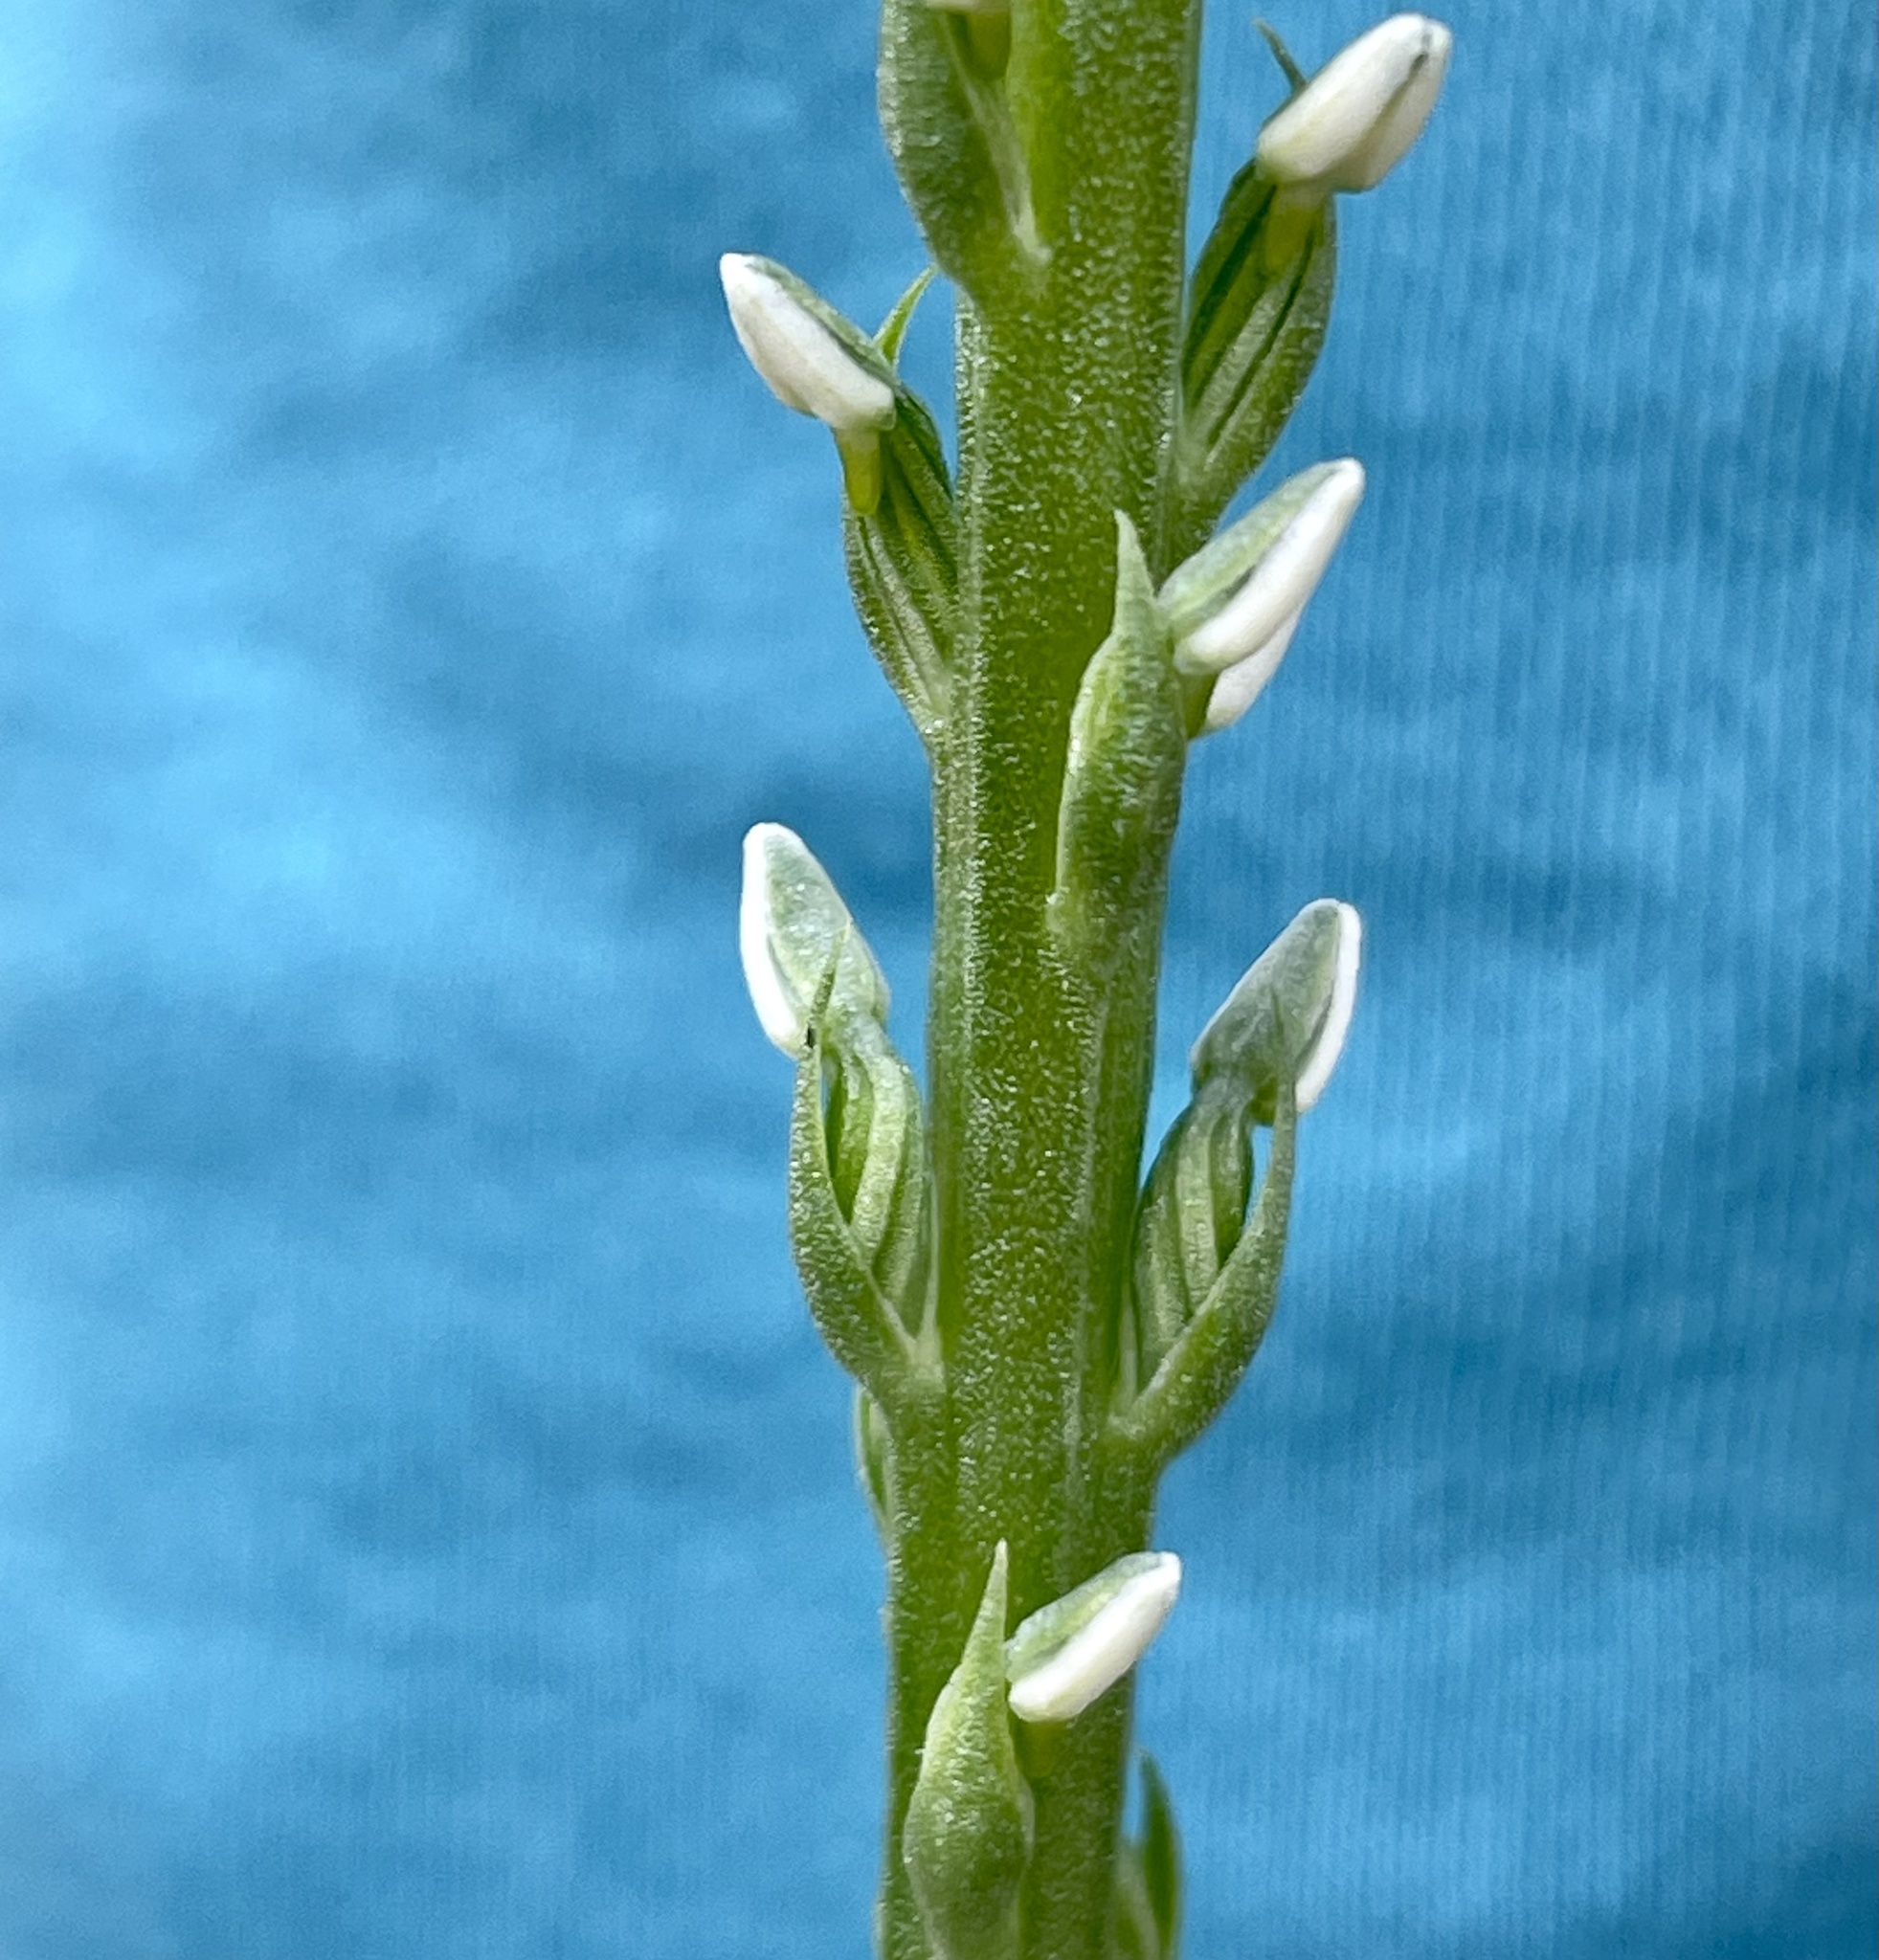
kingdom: Plantae
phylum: Tracheophyta
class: Liliopsida
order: Asparagales
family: Orchidaceae
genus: Platanthera
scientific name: Platanthera yadonii
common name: Yadon’s piperia
